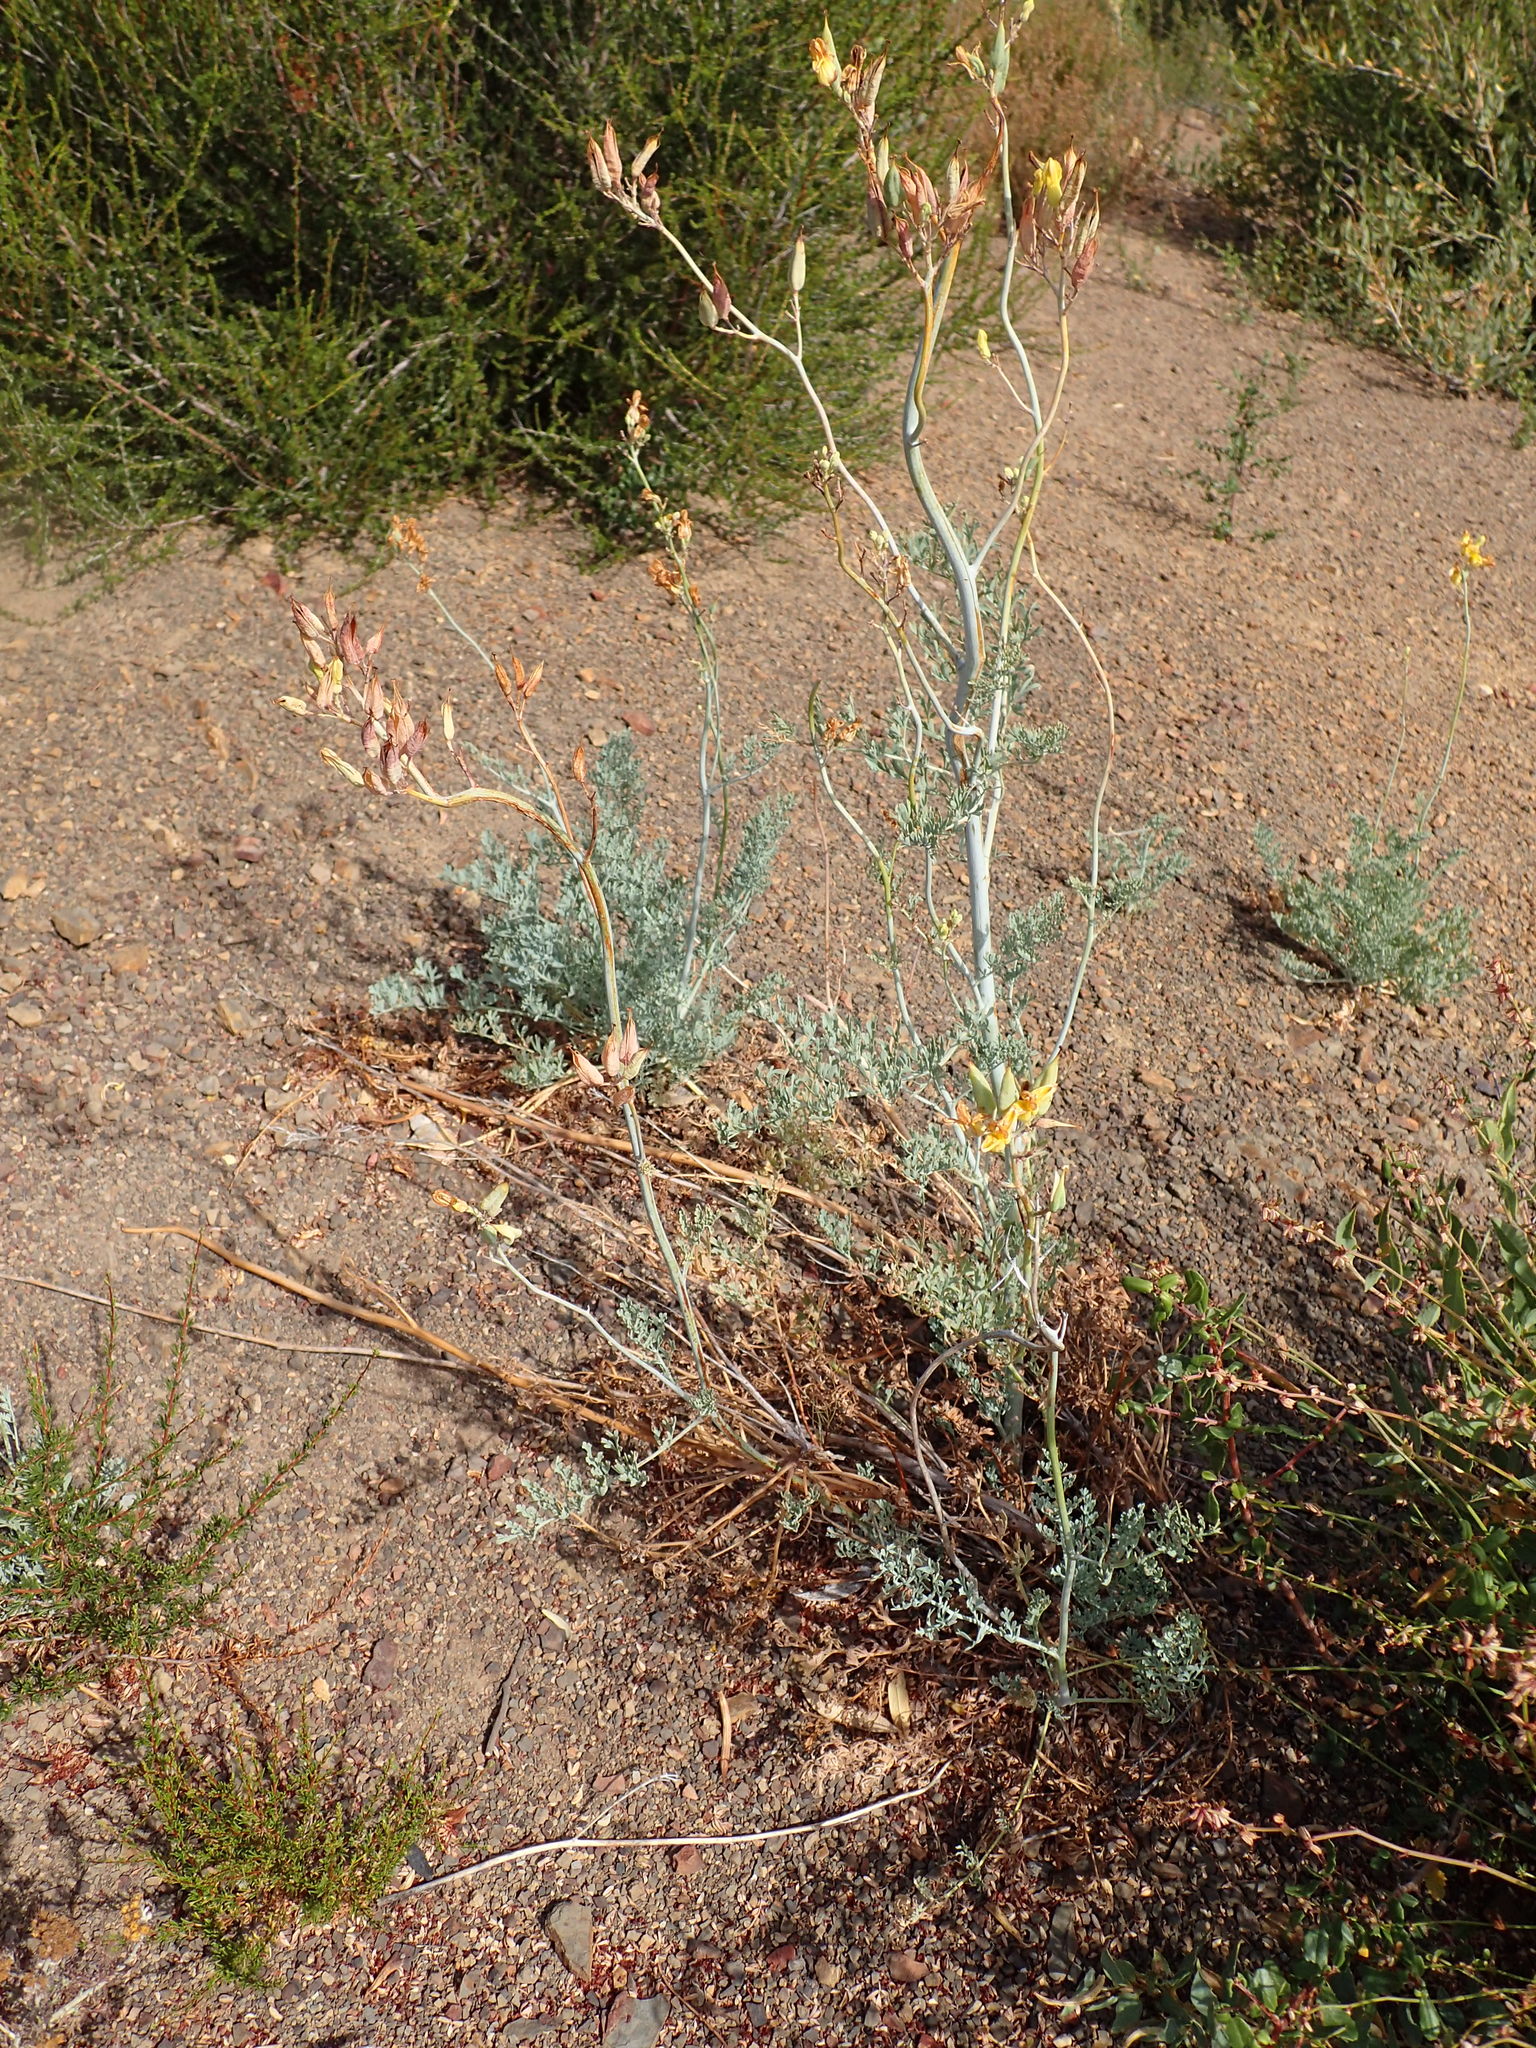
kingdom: Plantae
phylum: Tracheophyta
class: Magnoliopsida
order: Ranunculales
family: Papaveraceae
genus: Ehrendorferia
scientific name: Ehrendorferia chrysantha
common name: Golden eardrops
